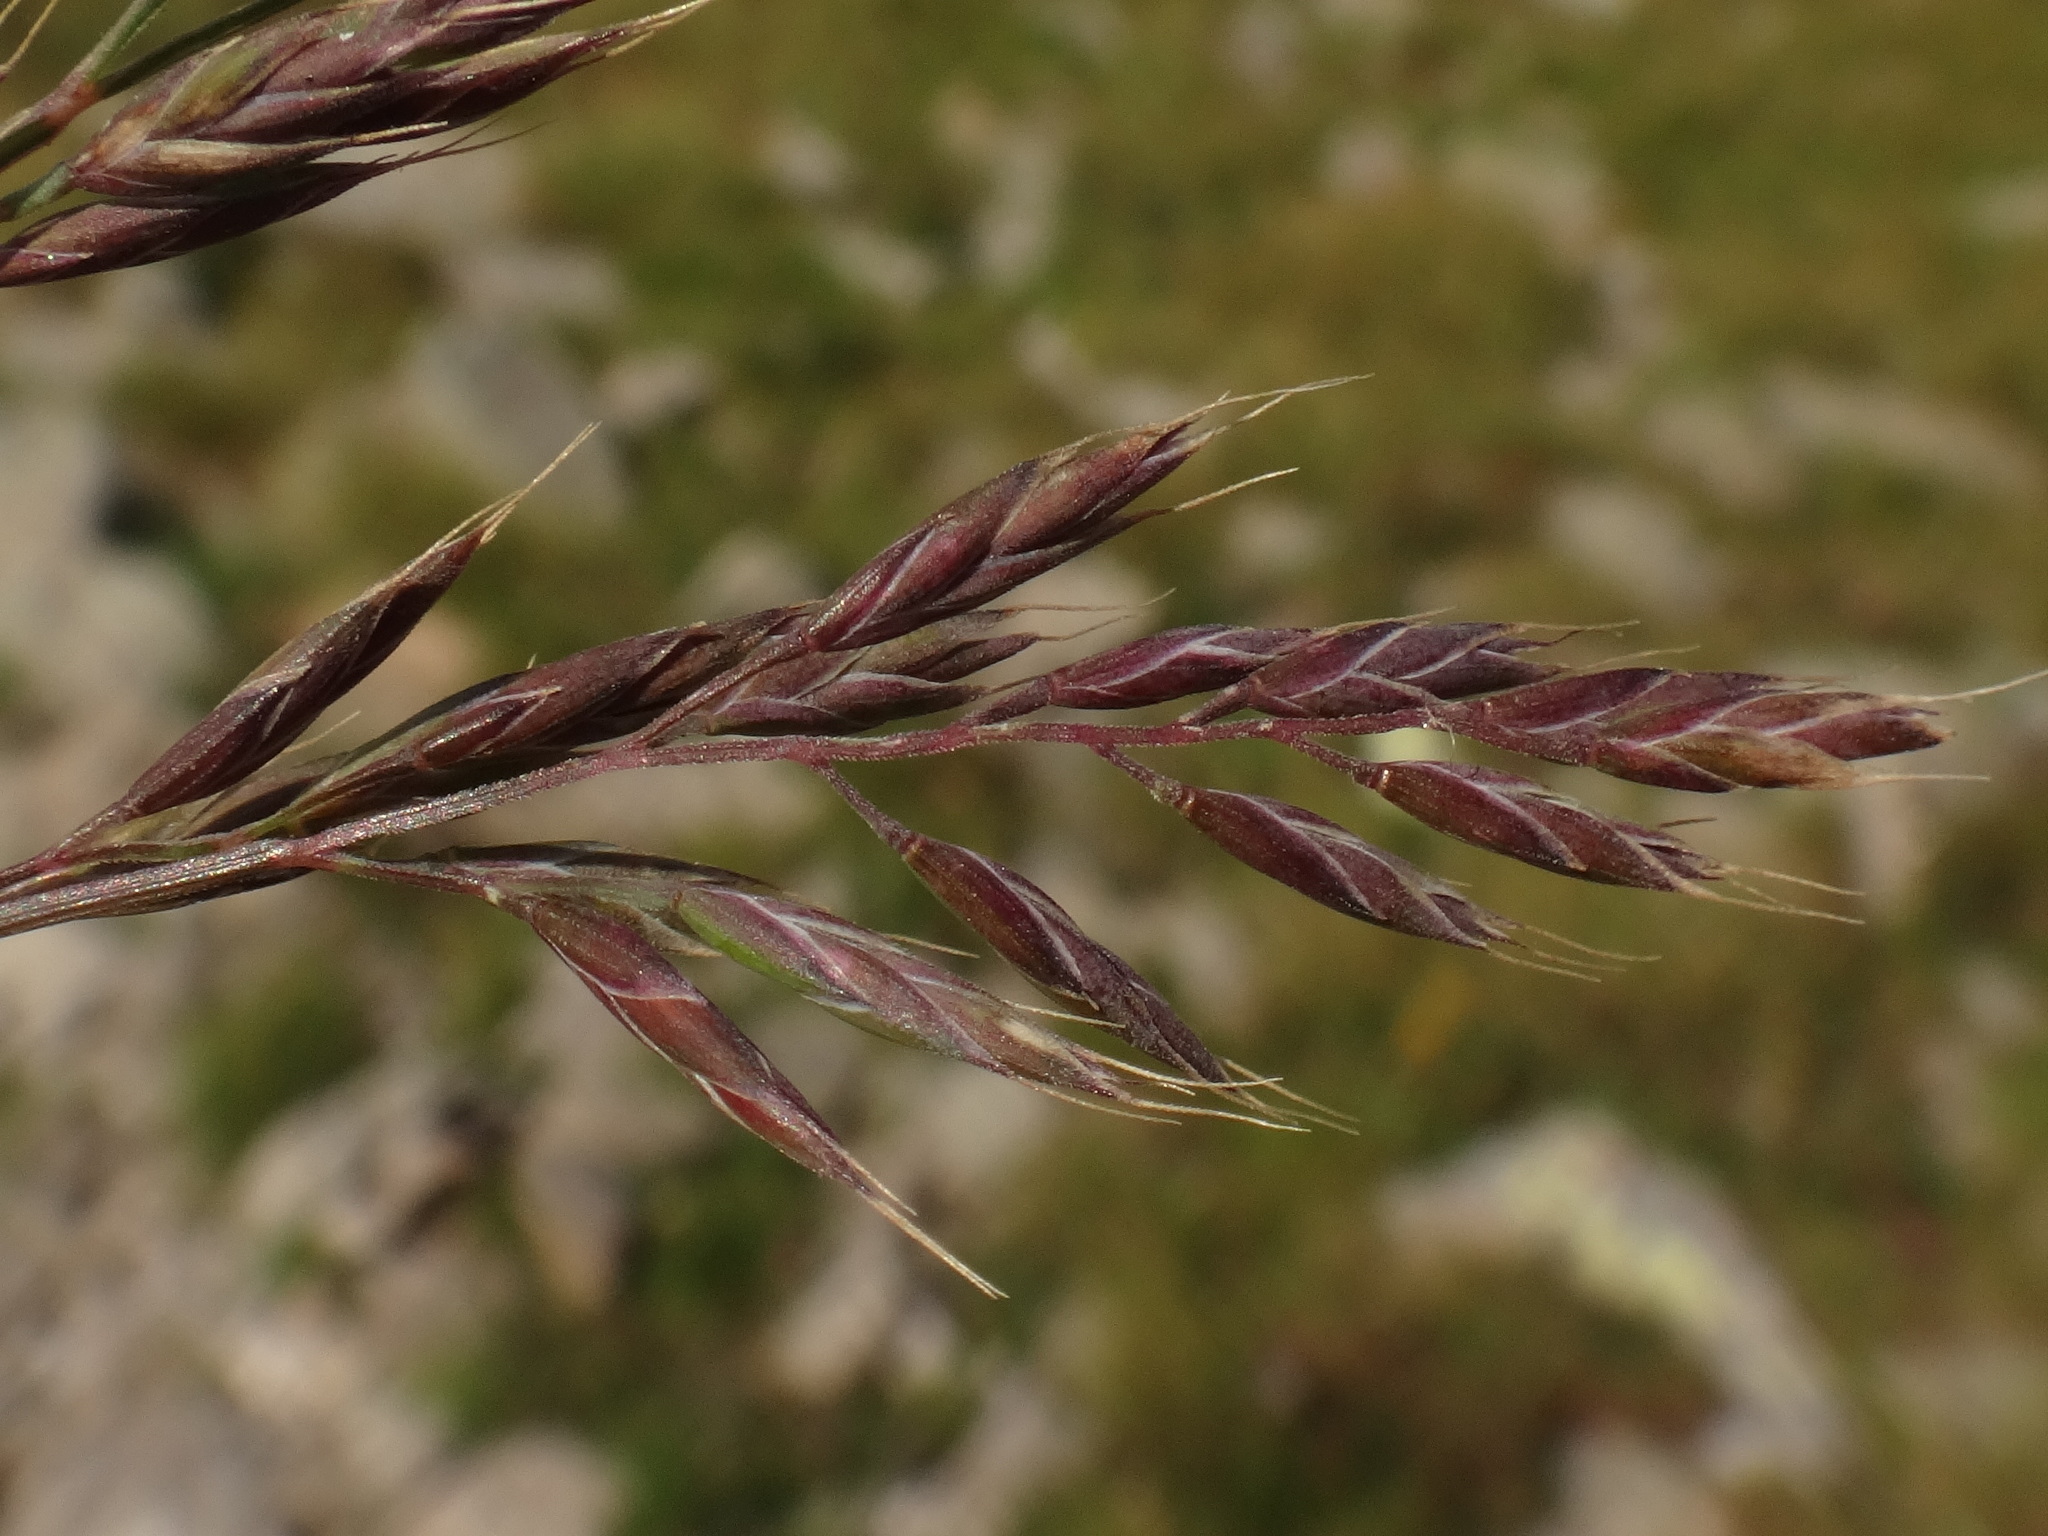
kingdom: Plantae
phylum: Tracheophyta
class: Liliopsida
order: Poales
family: Poaceae
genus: Festuca
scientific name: Festuca pseudodura
